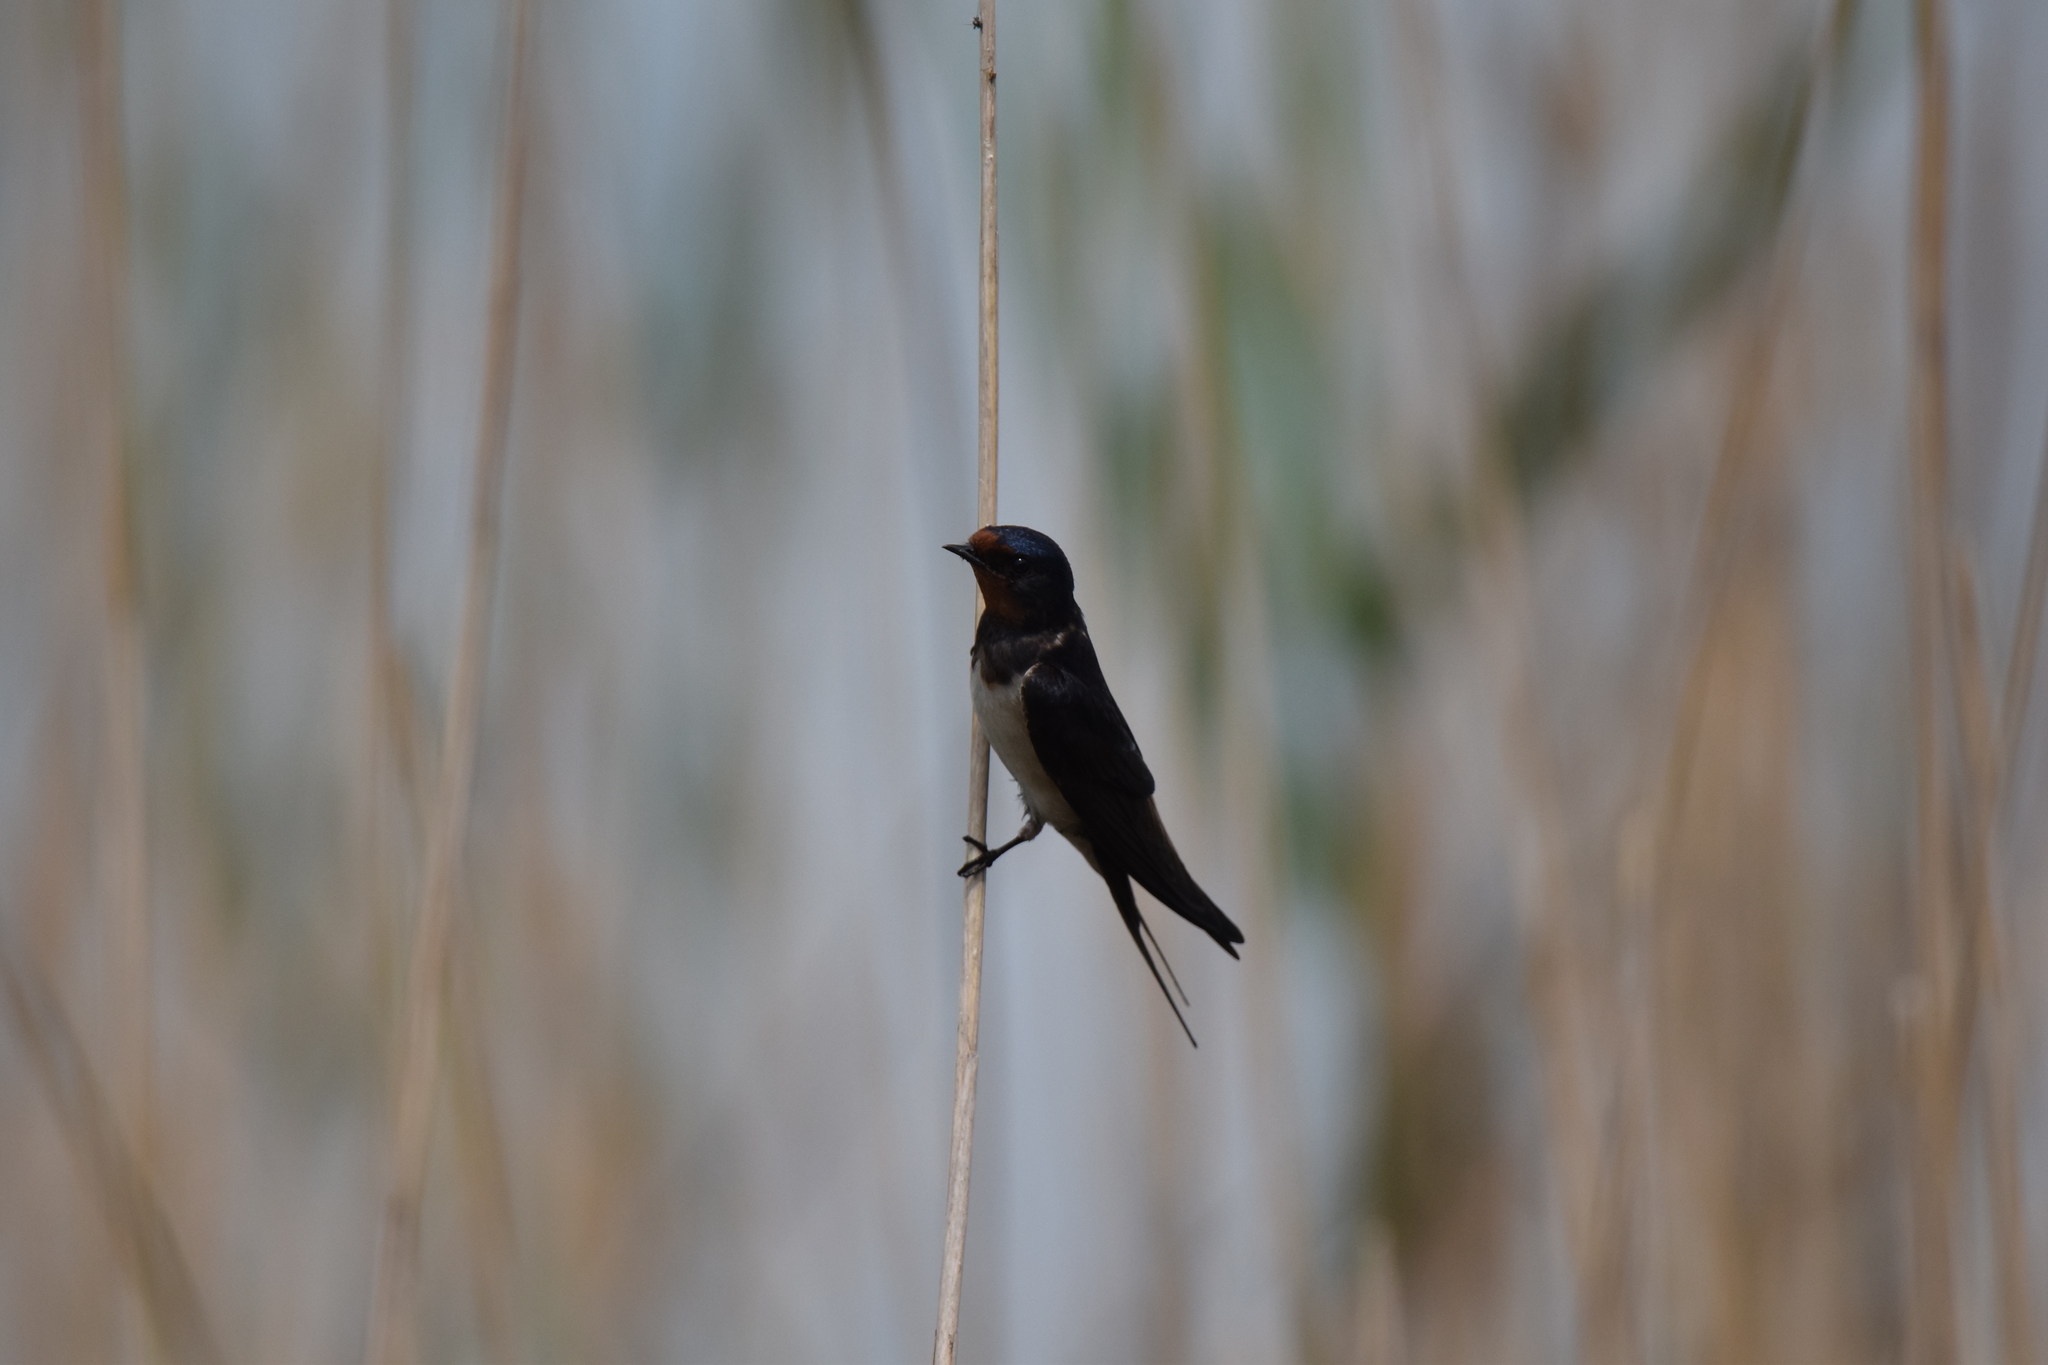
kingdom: Animalia
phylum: Chordata
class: Aves
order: Passeriformes
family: Hirundinidae
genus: Hirundo
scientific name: Hirundo rustica
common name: Barn swallow
